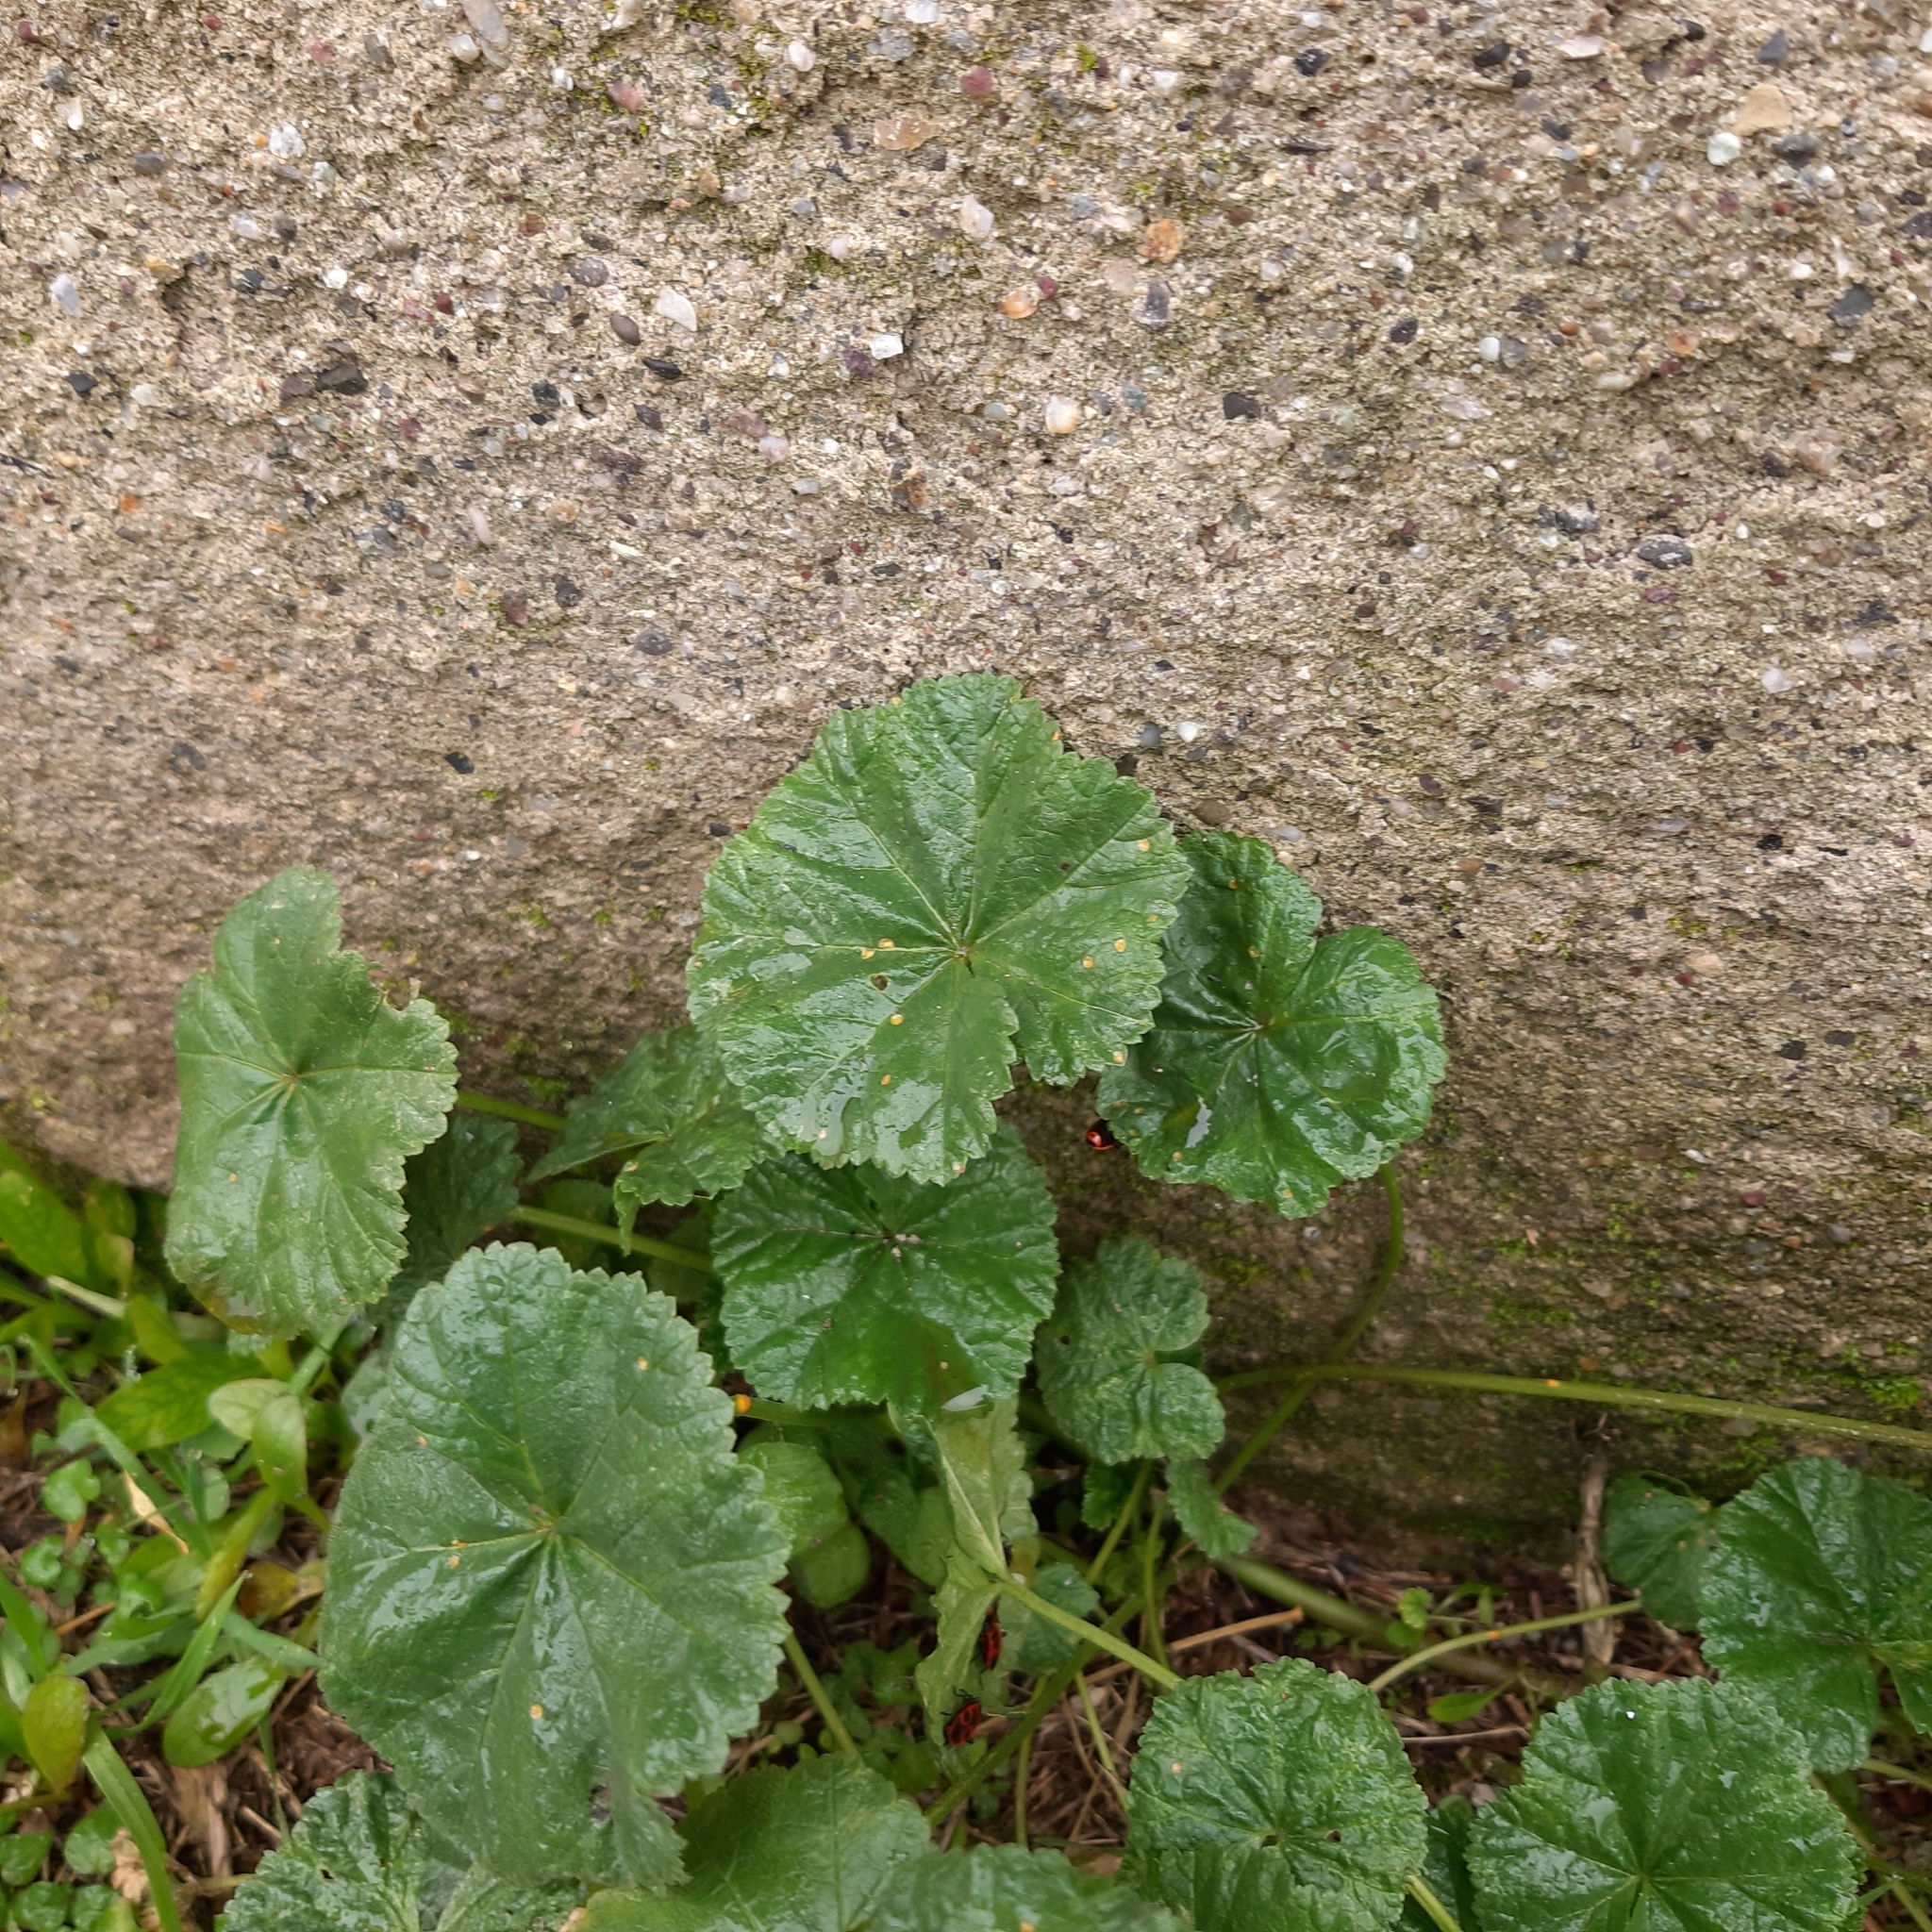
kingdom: Plantae
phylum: Tracheophyta
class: Magnoliopsida
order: Malvales
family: Malvaceae
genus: Malva
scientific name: Malva neglecta
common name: Common mallow
